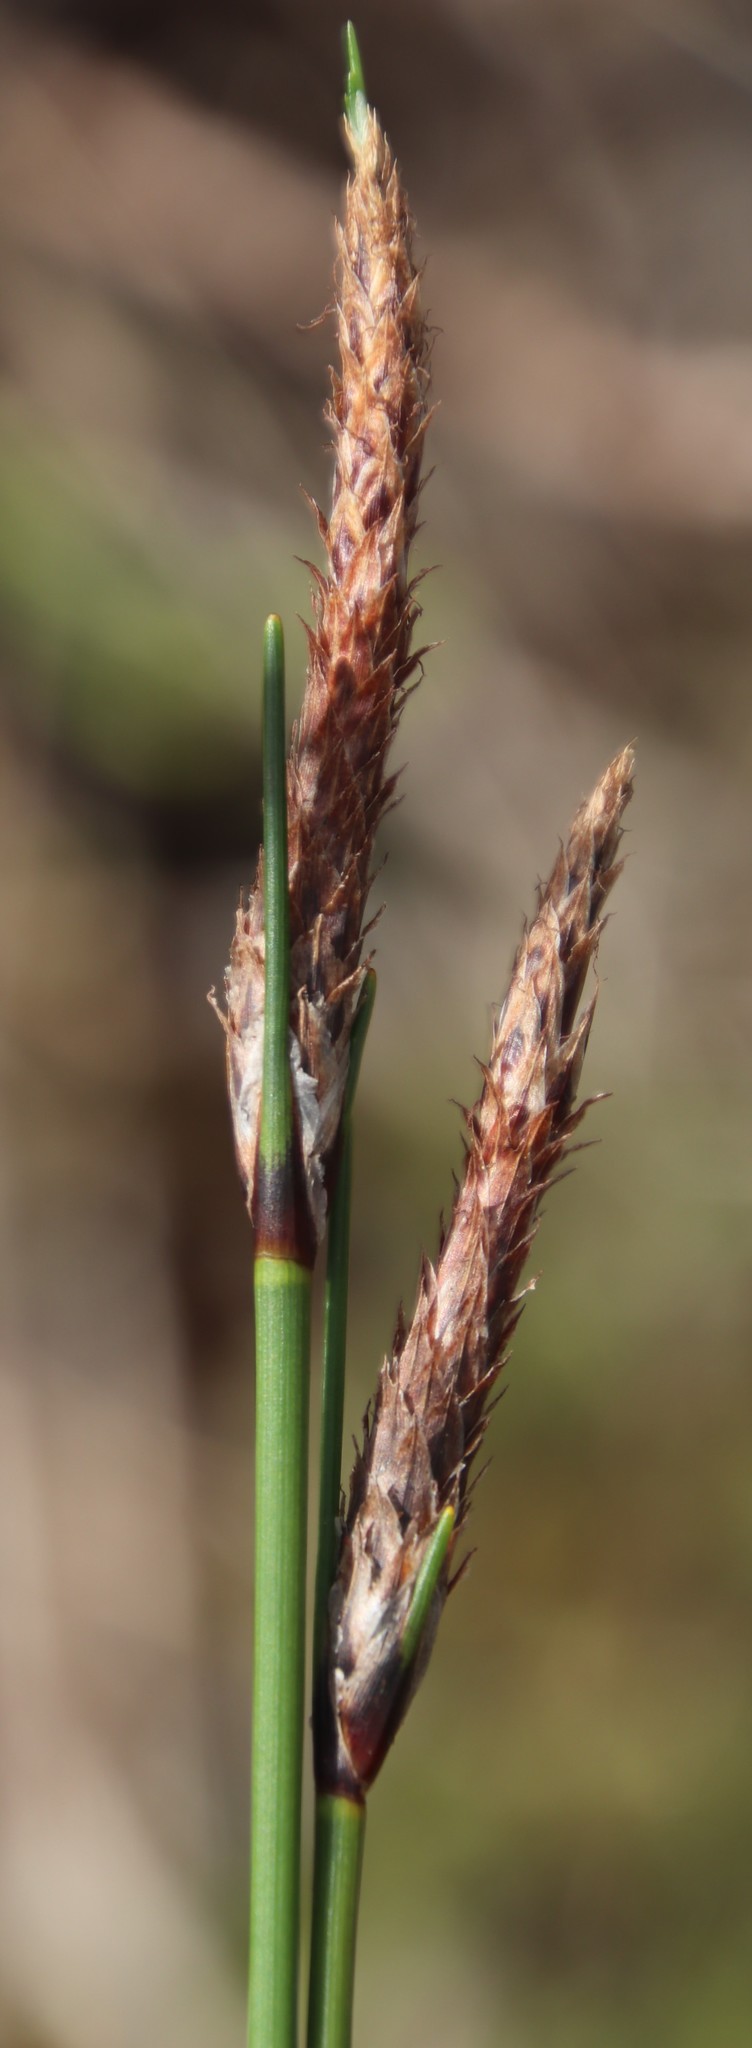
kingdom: Plantae
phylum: Tracheophyta
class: Liliopsida
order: Poales
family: Cyperaceae
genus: Ficinia
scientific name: Ficinia deusta
